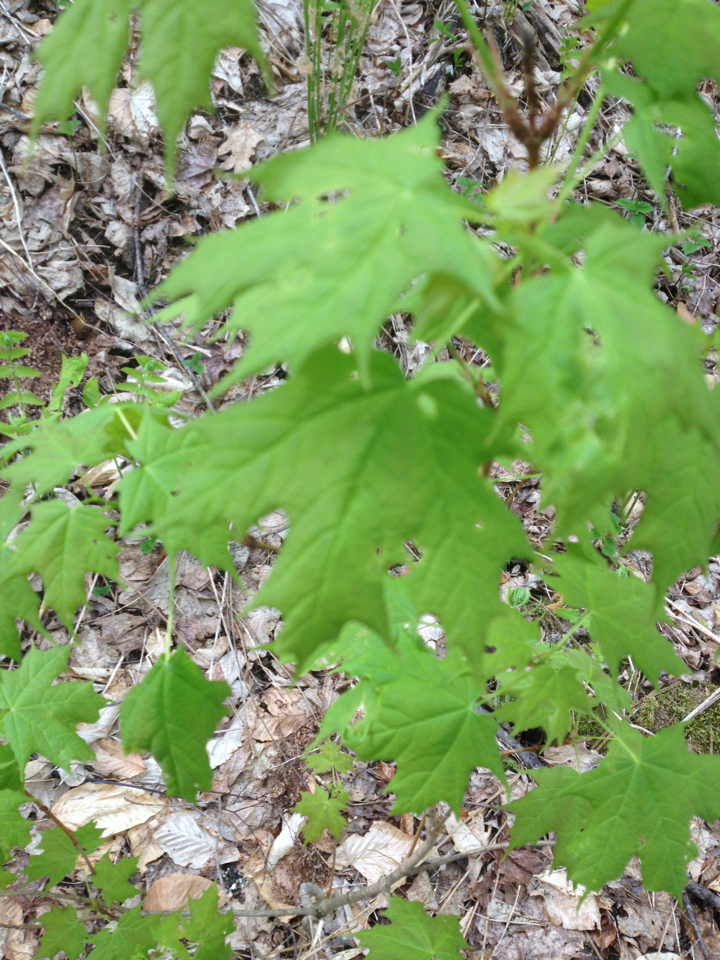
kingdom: Plantae
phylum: Tracheophyta
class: Magnoliopsida
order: Sapindales
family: Sapindaceae
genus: Acer
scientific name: Acer saccharum
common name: Sugar maple
